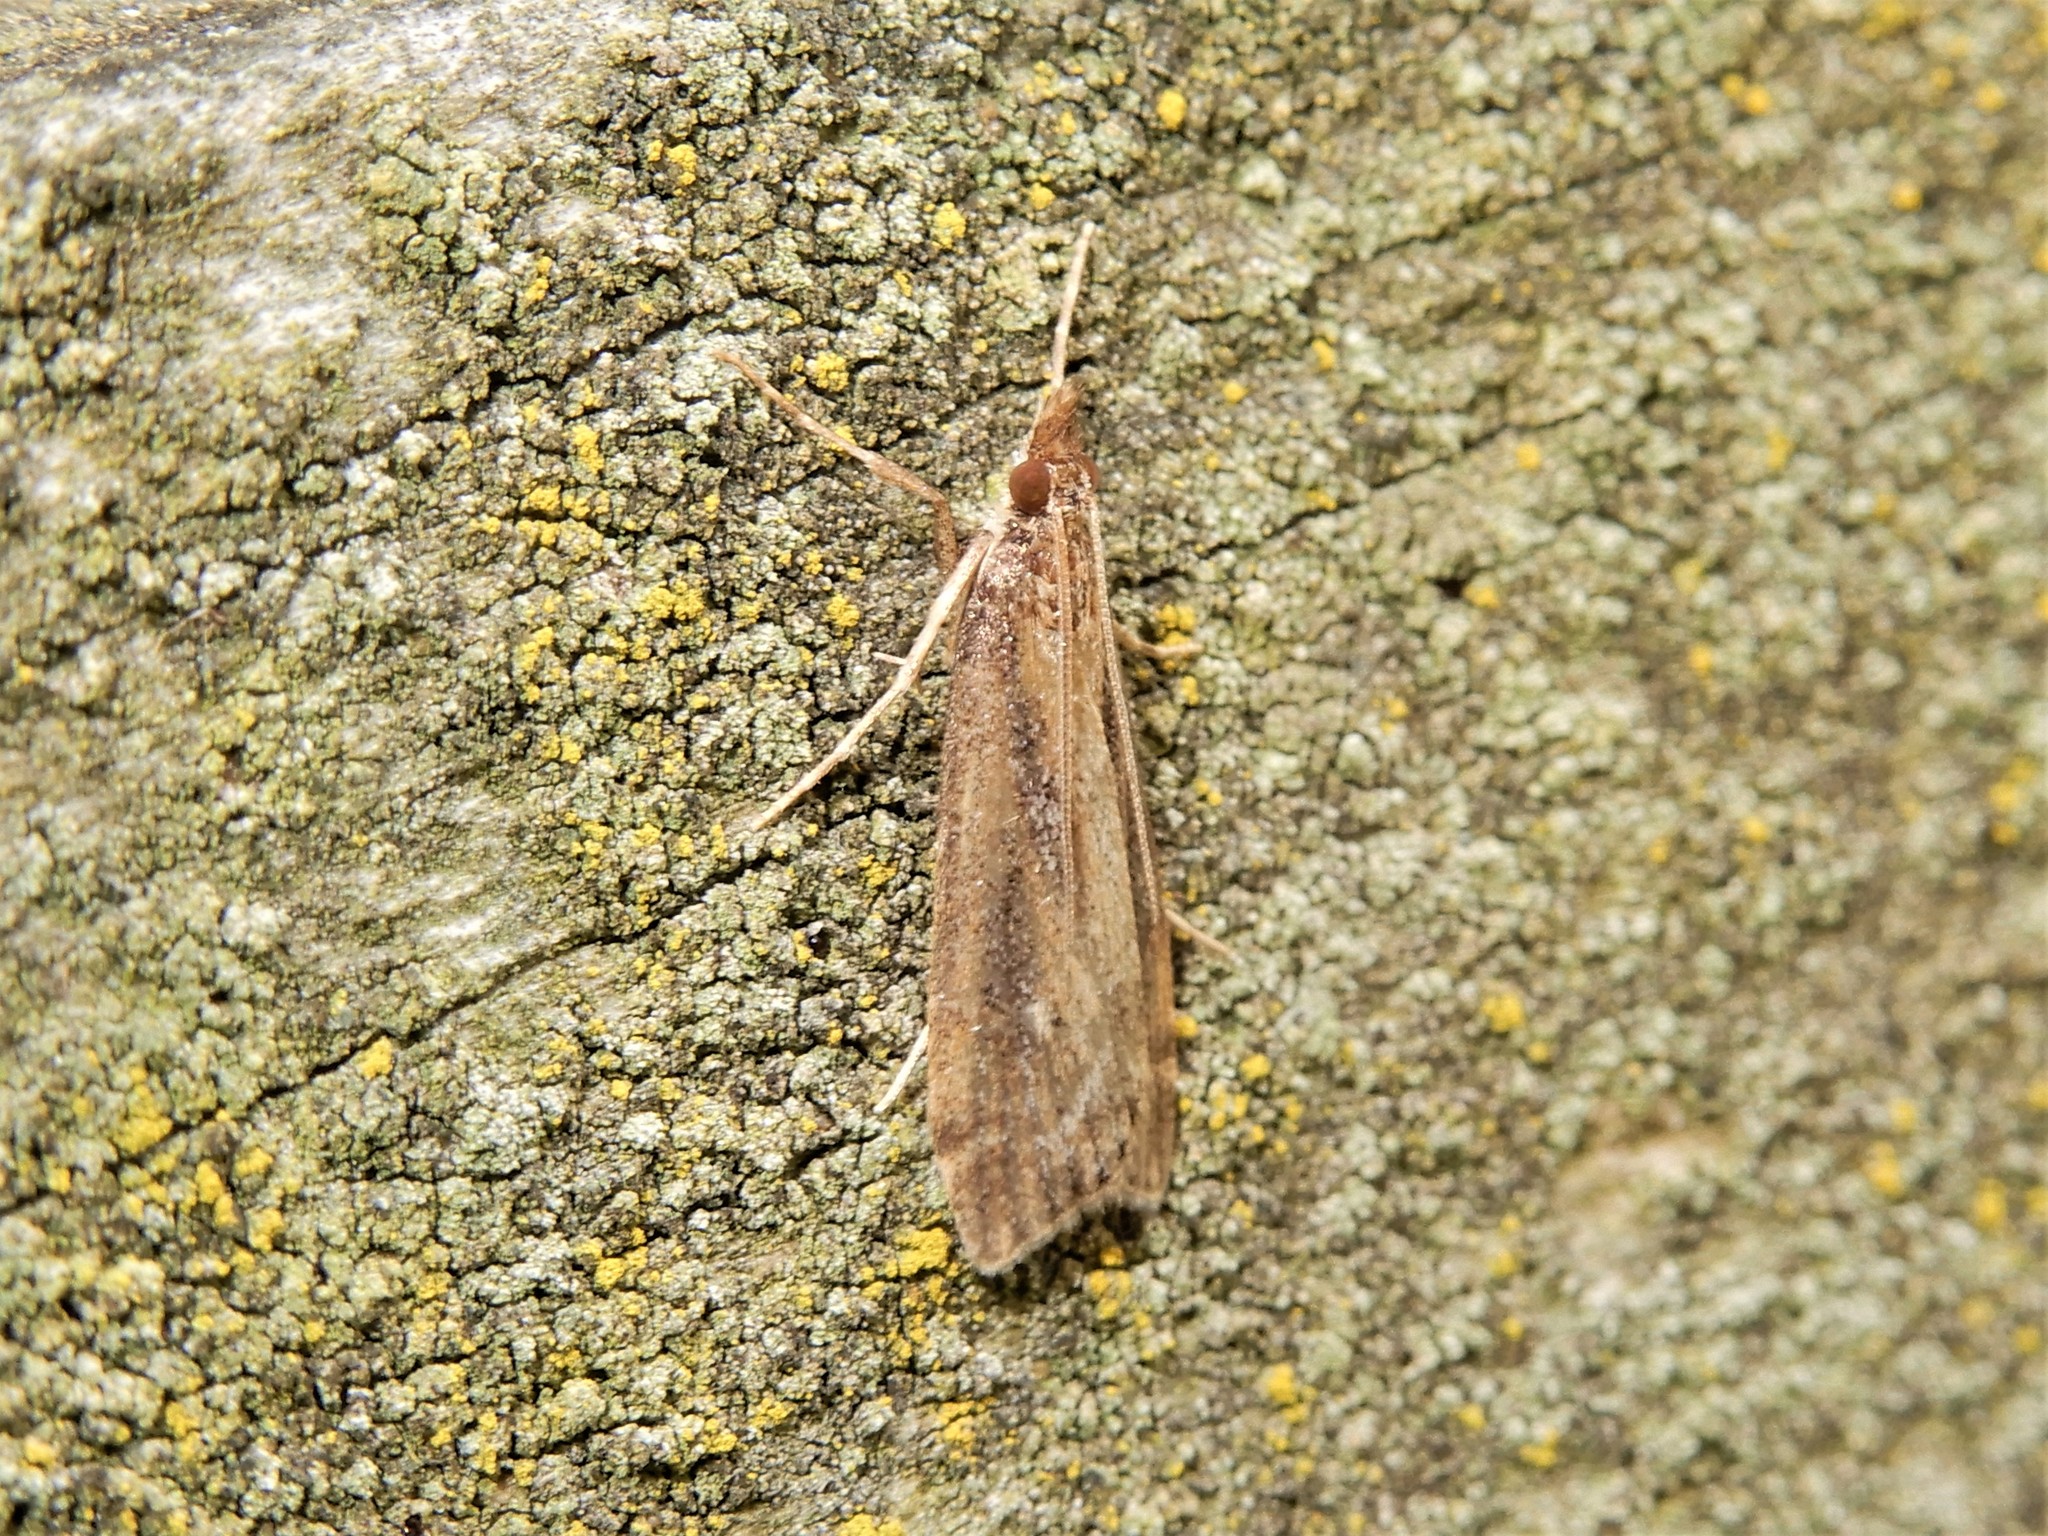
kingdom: Animalia
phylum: Arthropoda
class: Insecta
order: Lepidoptera
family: Crambidae
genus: Eudonia
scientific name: Eudonia octophora
